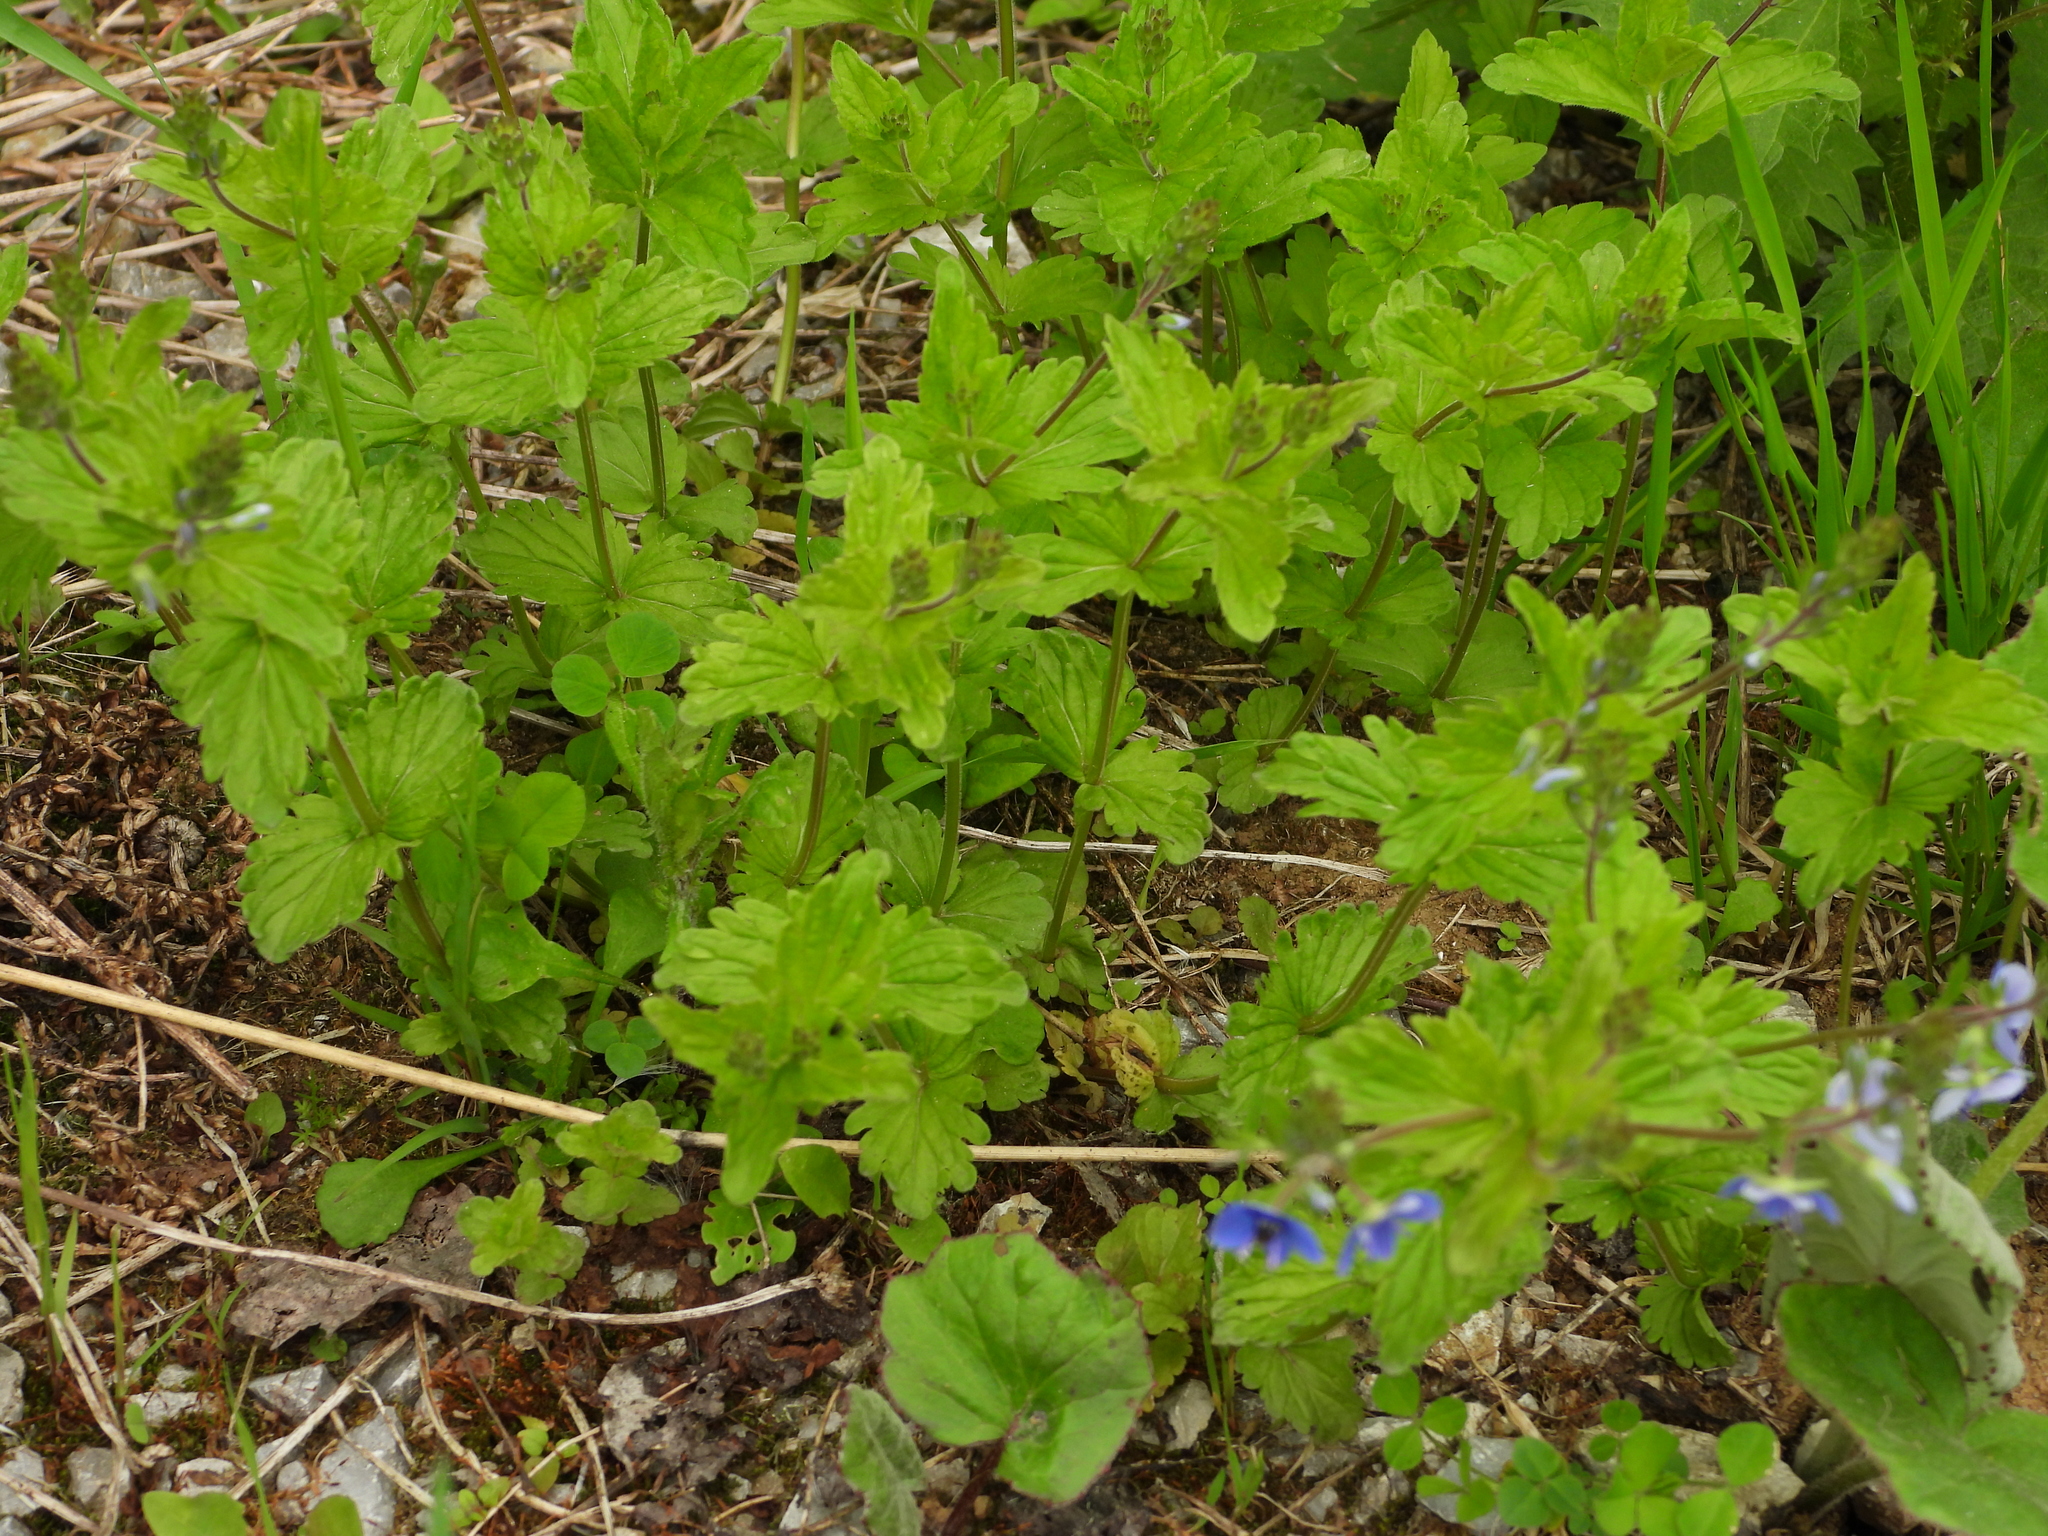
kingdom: Plantae
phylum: Tracheophyta
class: Magnoliopsida
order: Lamiales
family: Plantaginaceae
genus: Veronica
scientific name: Veronica chamaedrys
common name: Germander speedwell
